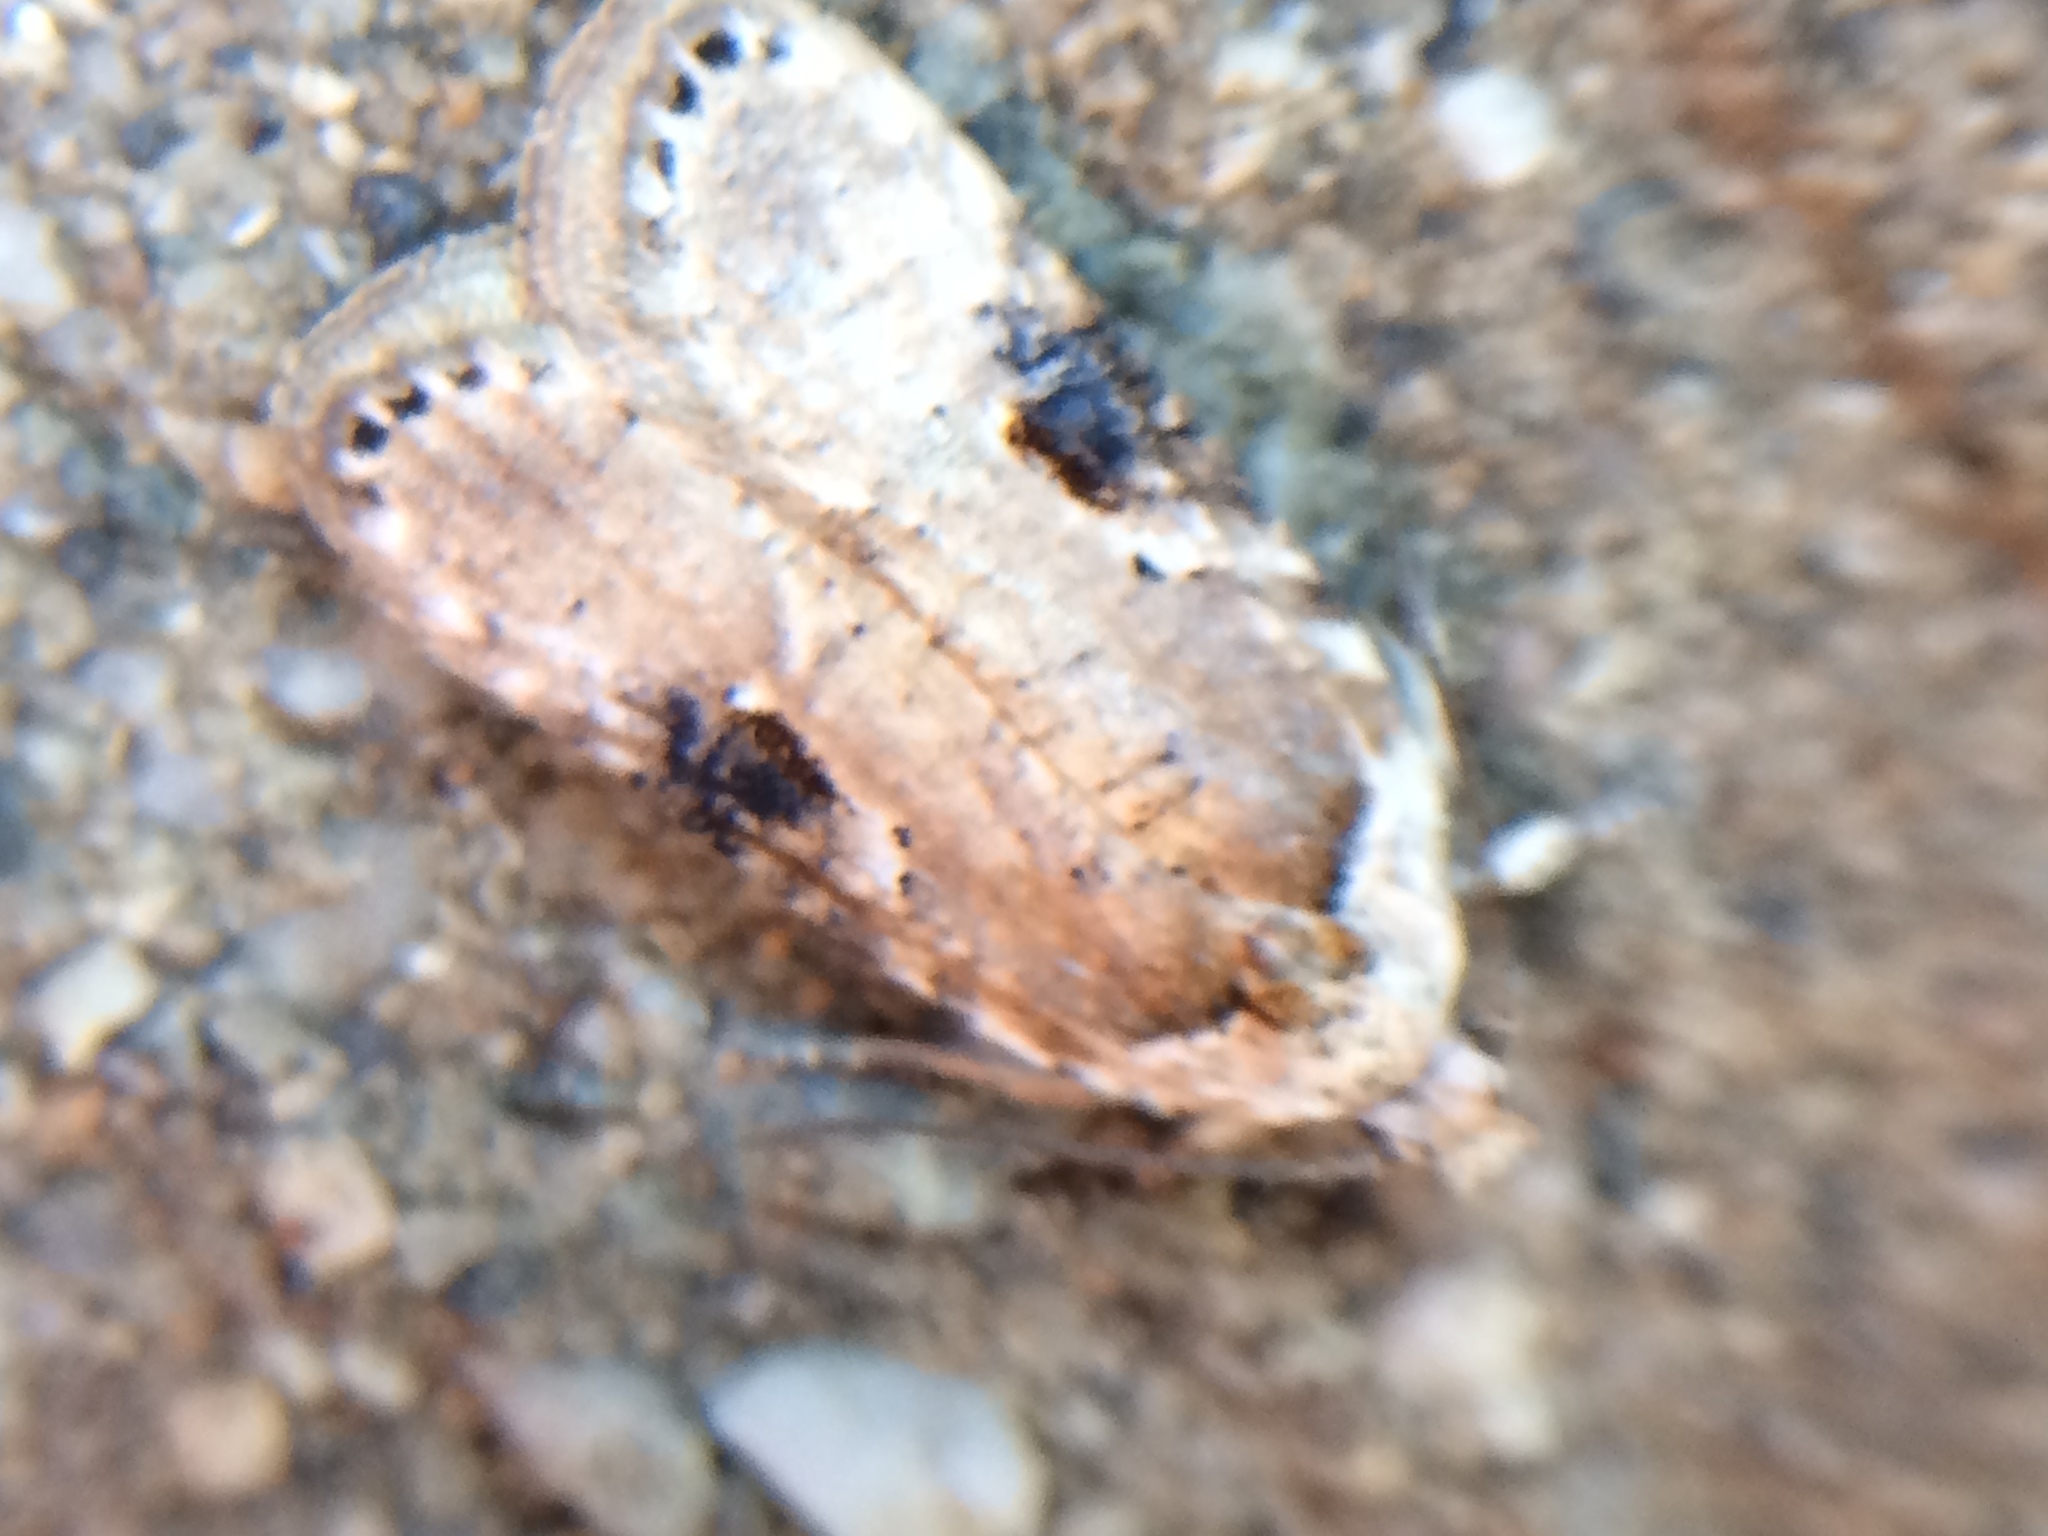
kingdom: Animalia
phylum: Arthropoda
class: Insecta
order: Lepidoptera
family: Depressariidae
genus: Agonopterix
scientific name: Agonopterix alstroemeriana
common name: Moth
